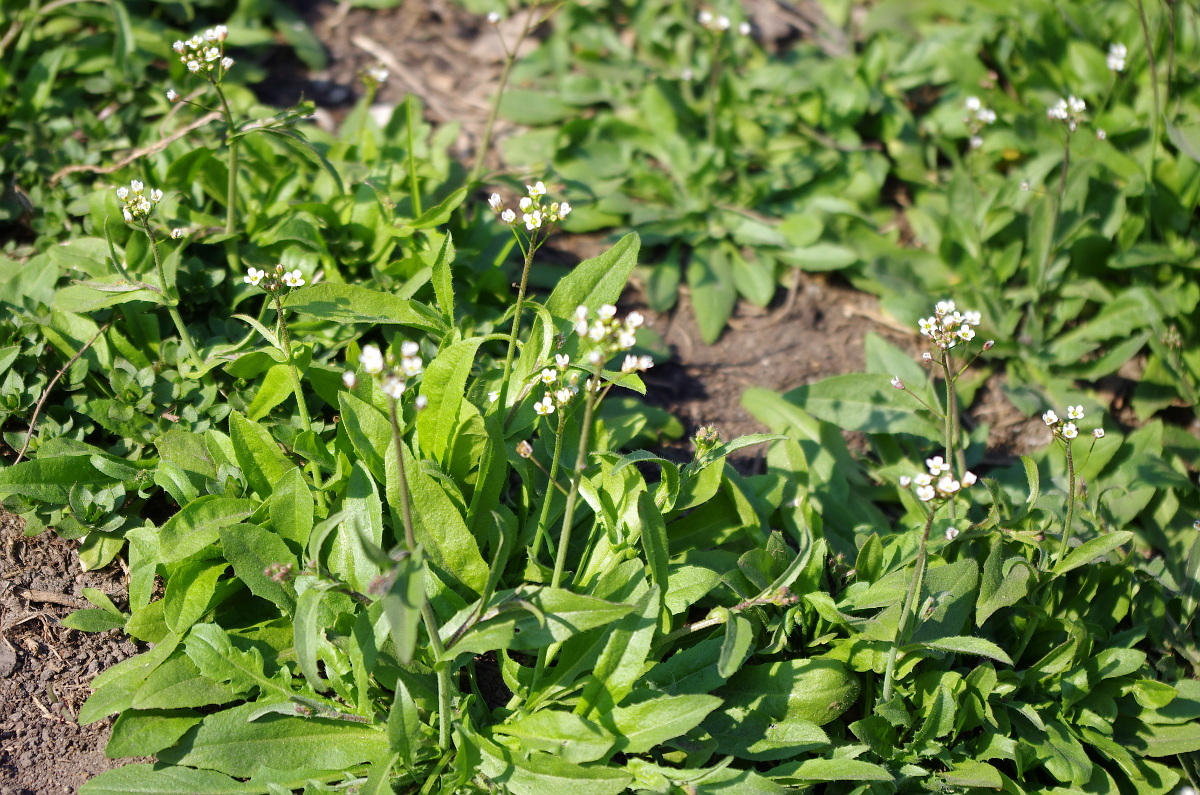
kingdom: Plantae
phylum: Tracheophyta
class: Magnoliopsida
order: Brassicales
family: Brassicaceae
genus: Capsella
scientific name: Capsella bursa-pastoris
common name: Shepherd's purse
